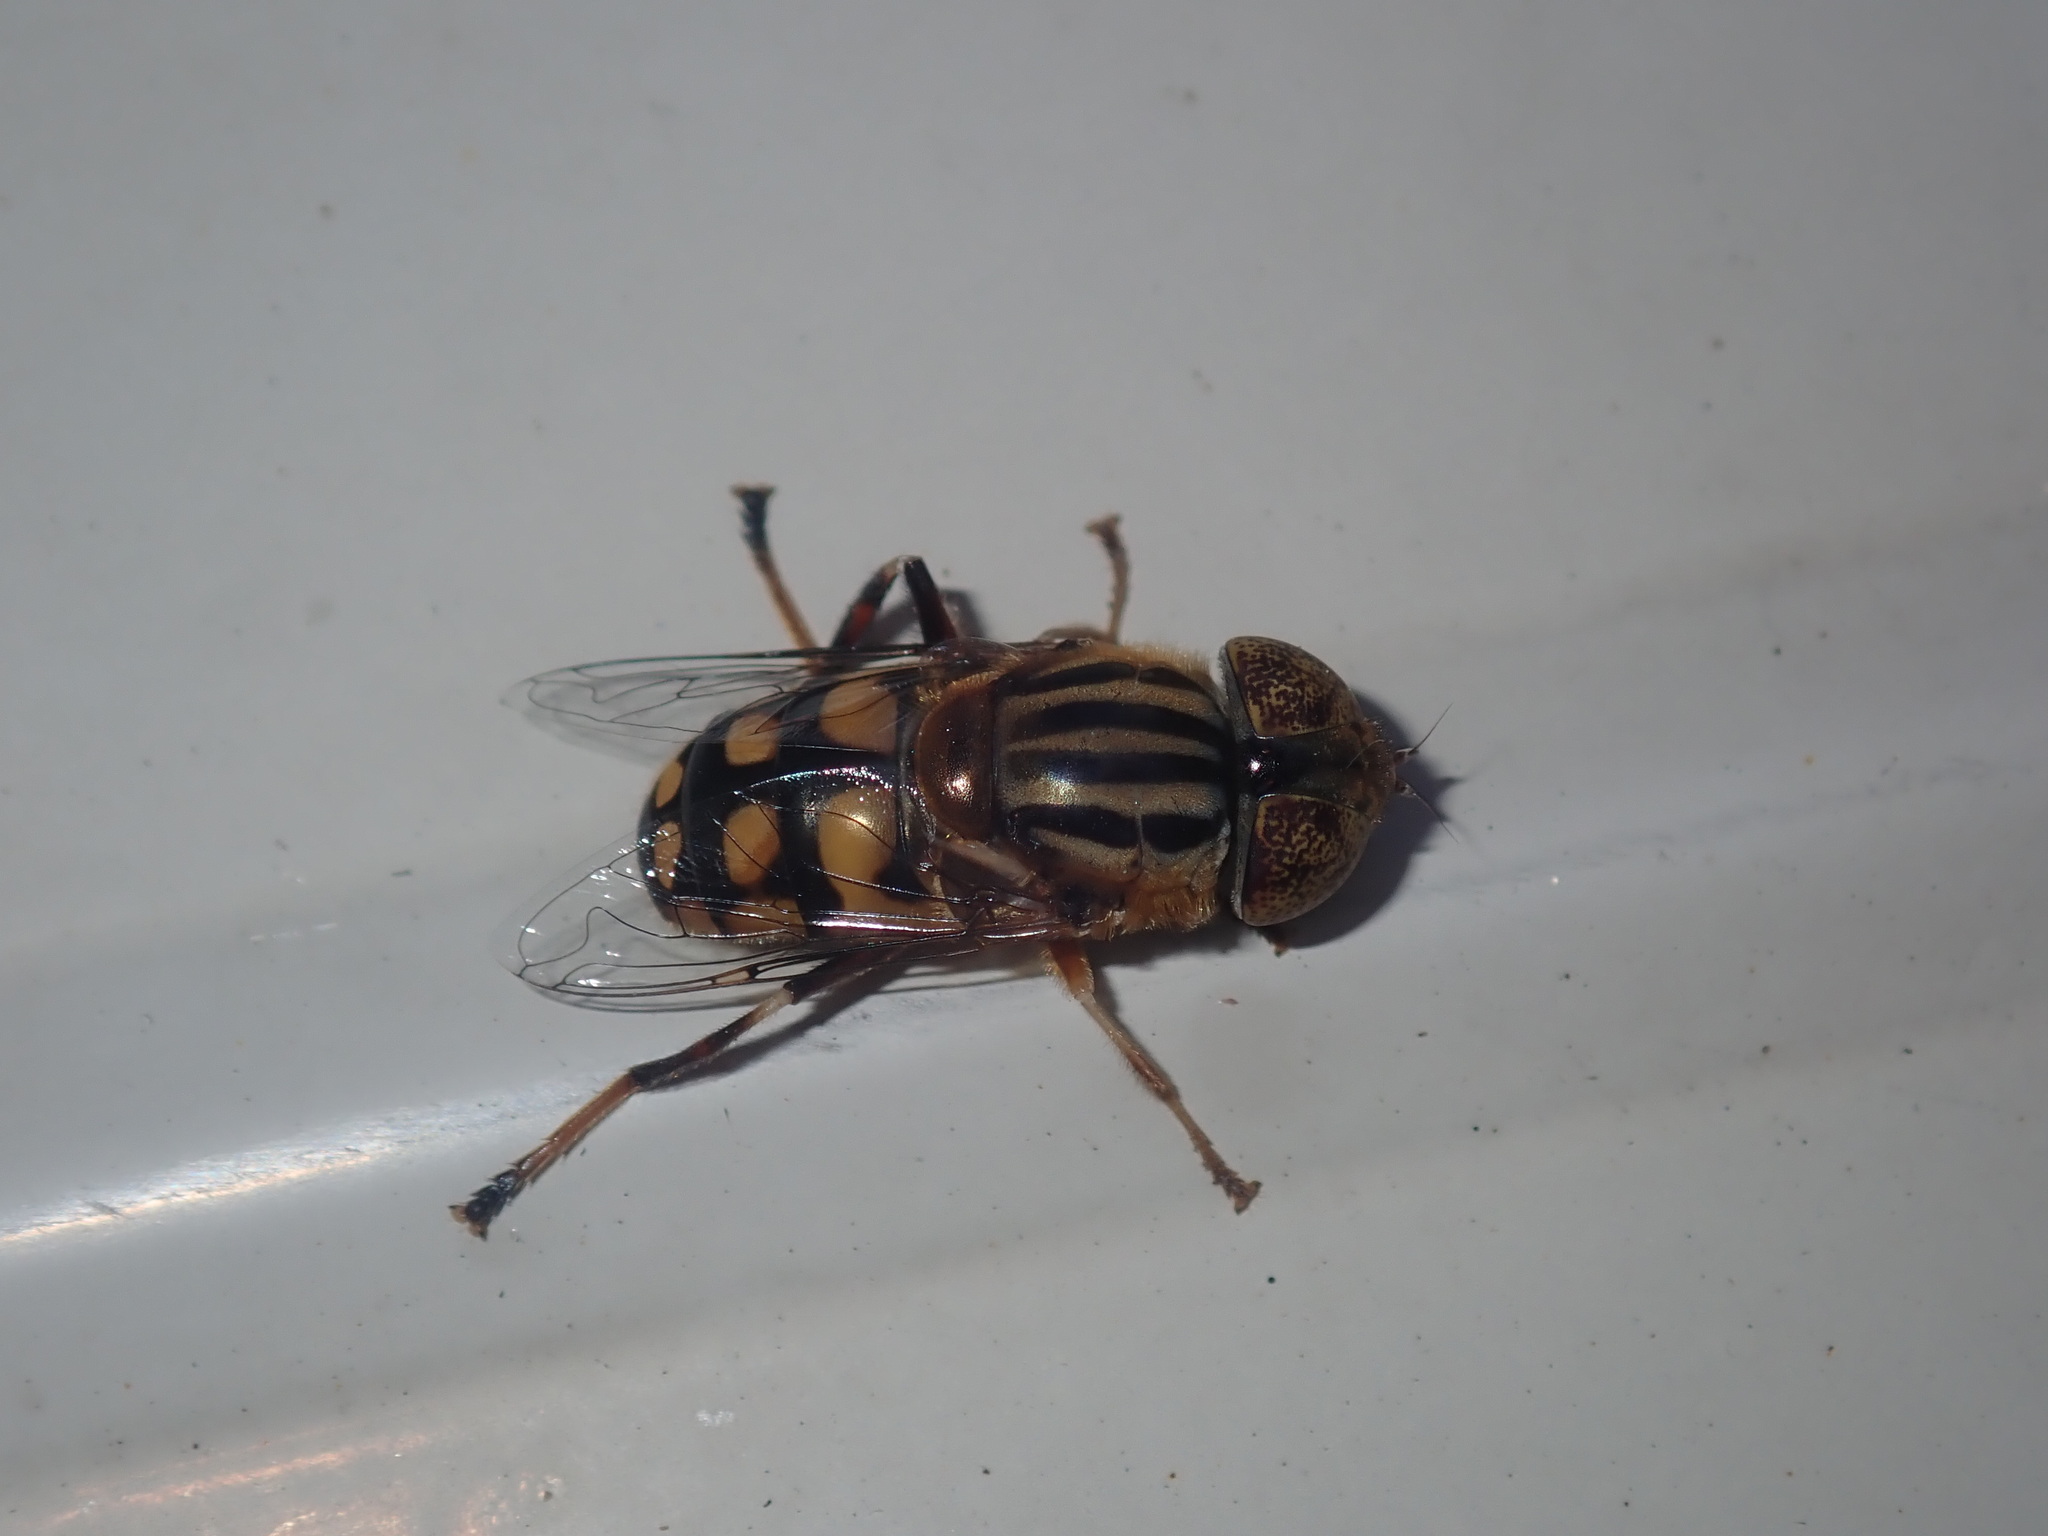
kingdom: Animalia
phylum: Arthropoda
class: Insecta
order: Diptera
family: Syrphidae
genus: Eristalinus
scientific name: Eristalinus punctulatus
